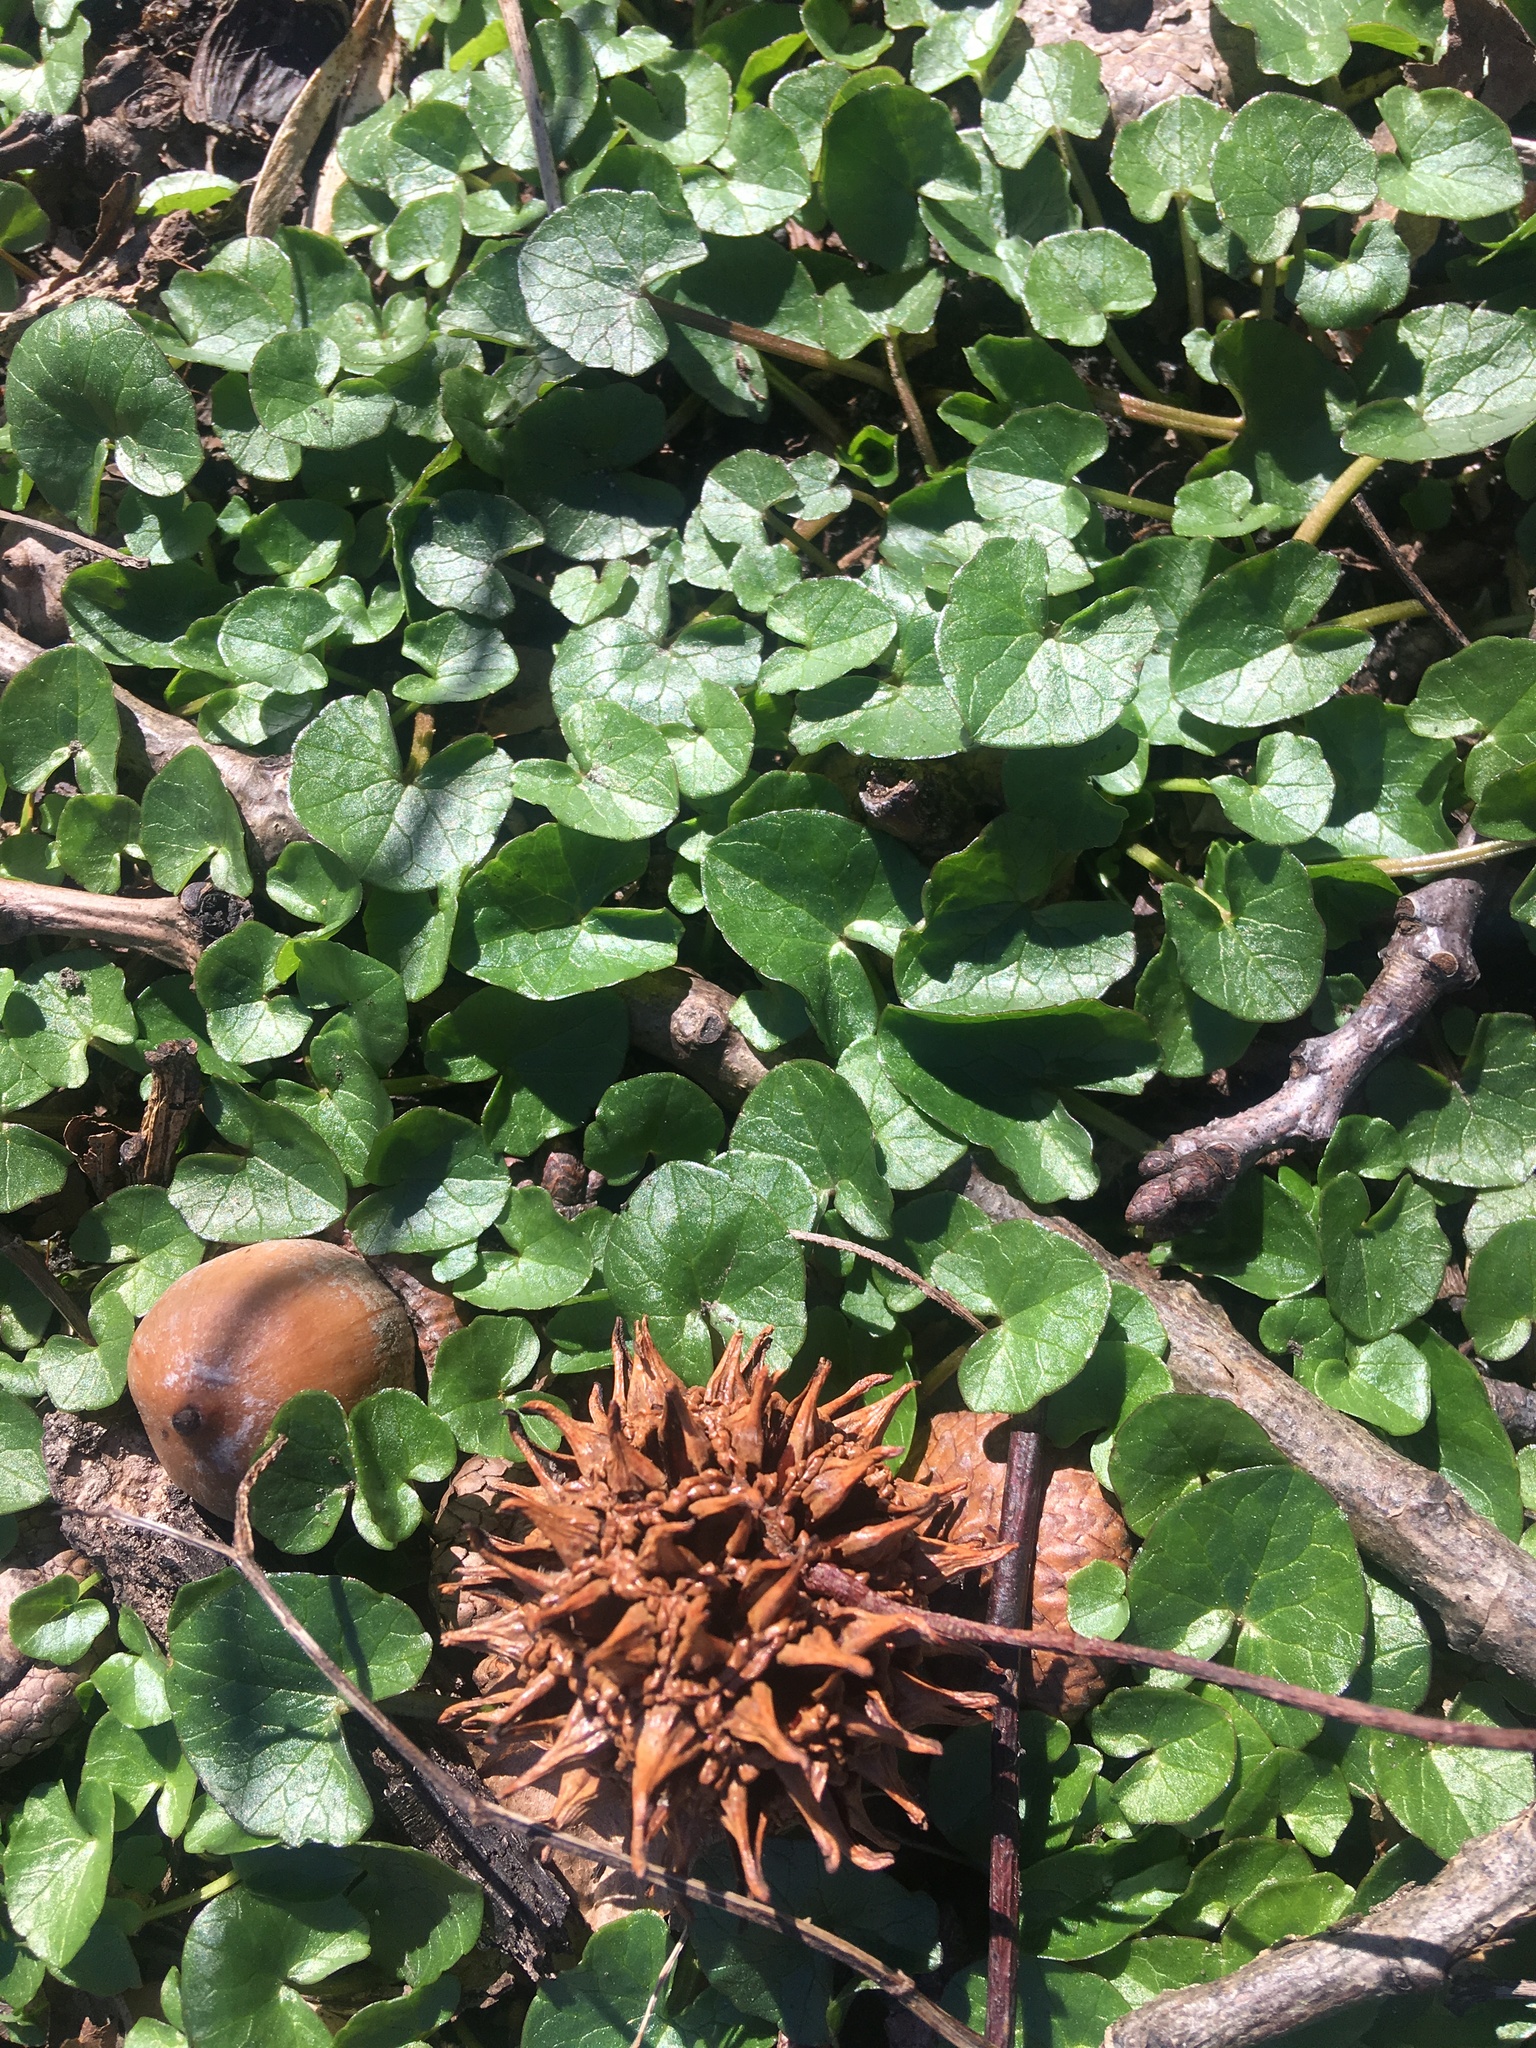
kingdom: Plantae
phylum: Tracheophyta
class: Magnoliopsida
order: Ranunculales
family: Ranunculaceae
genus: Ficaria
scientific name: Ficaria verna
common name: Lesser celandine
